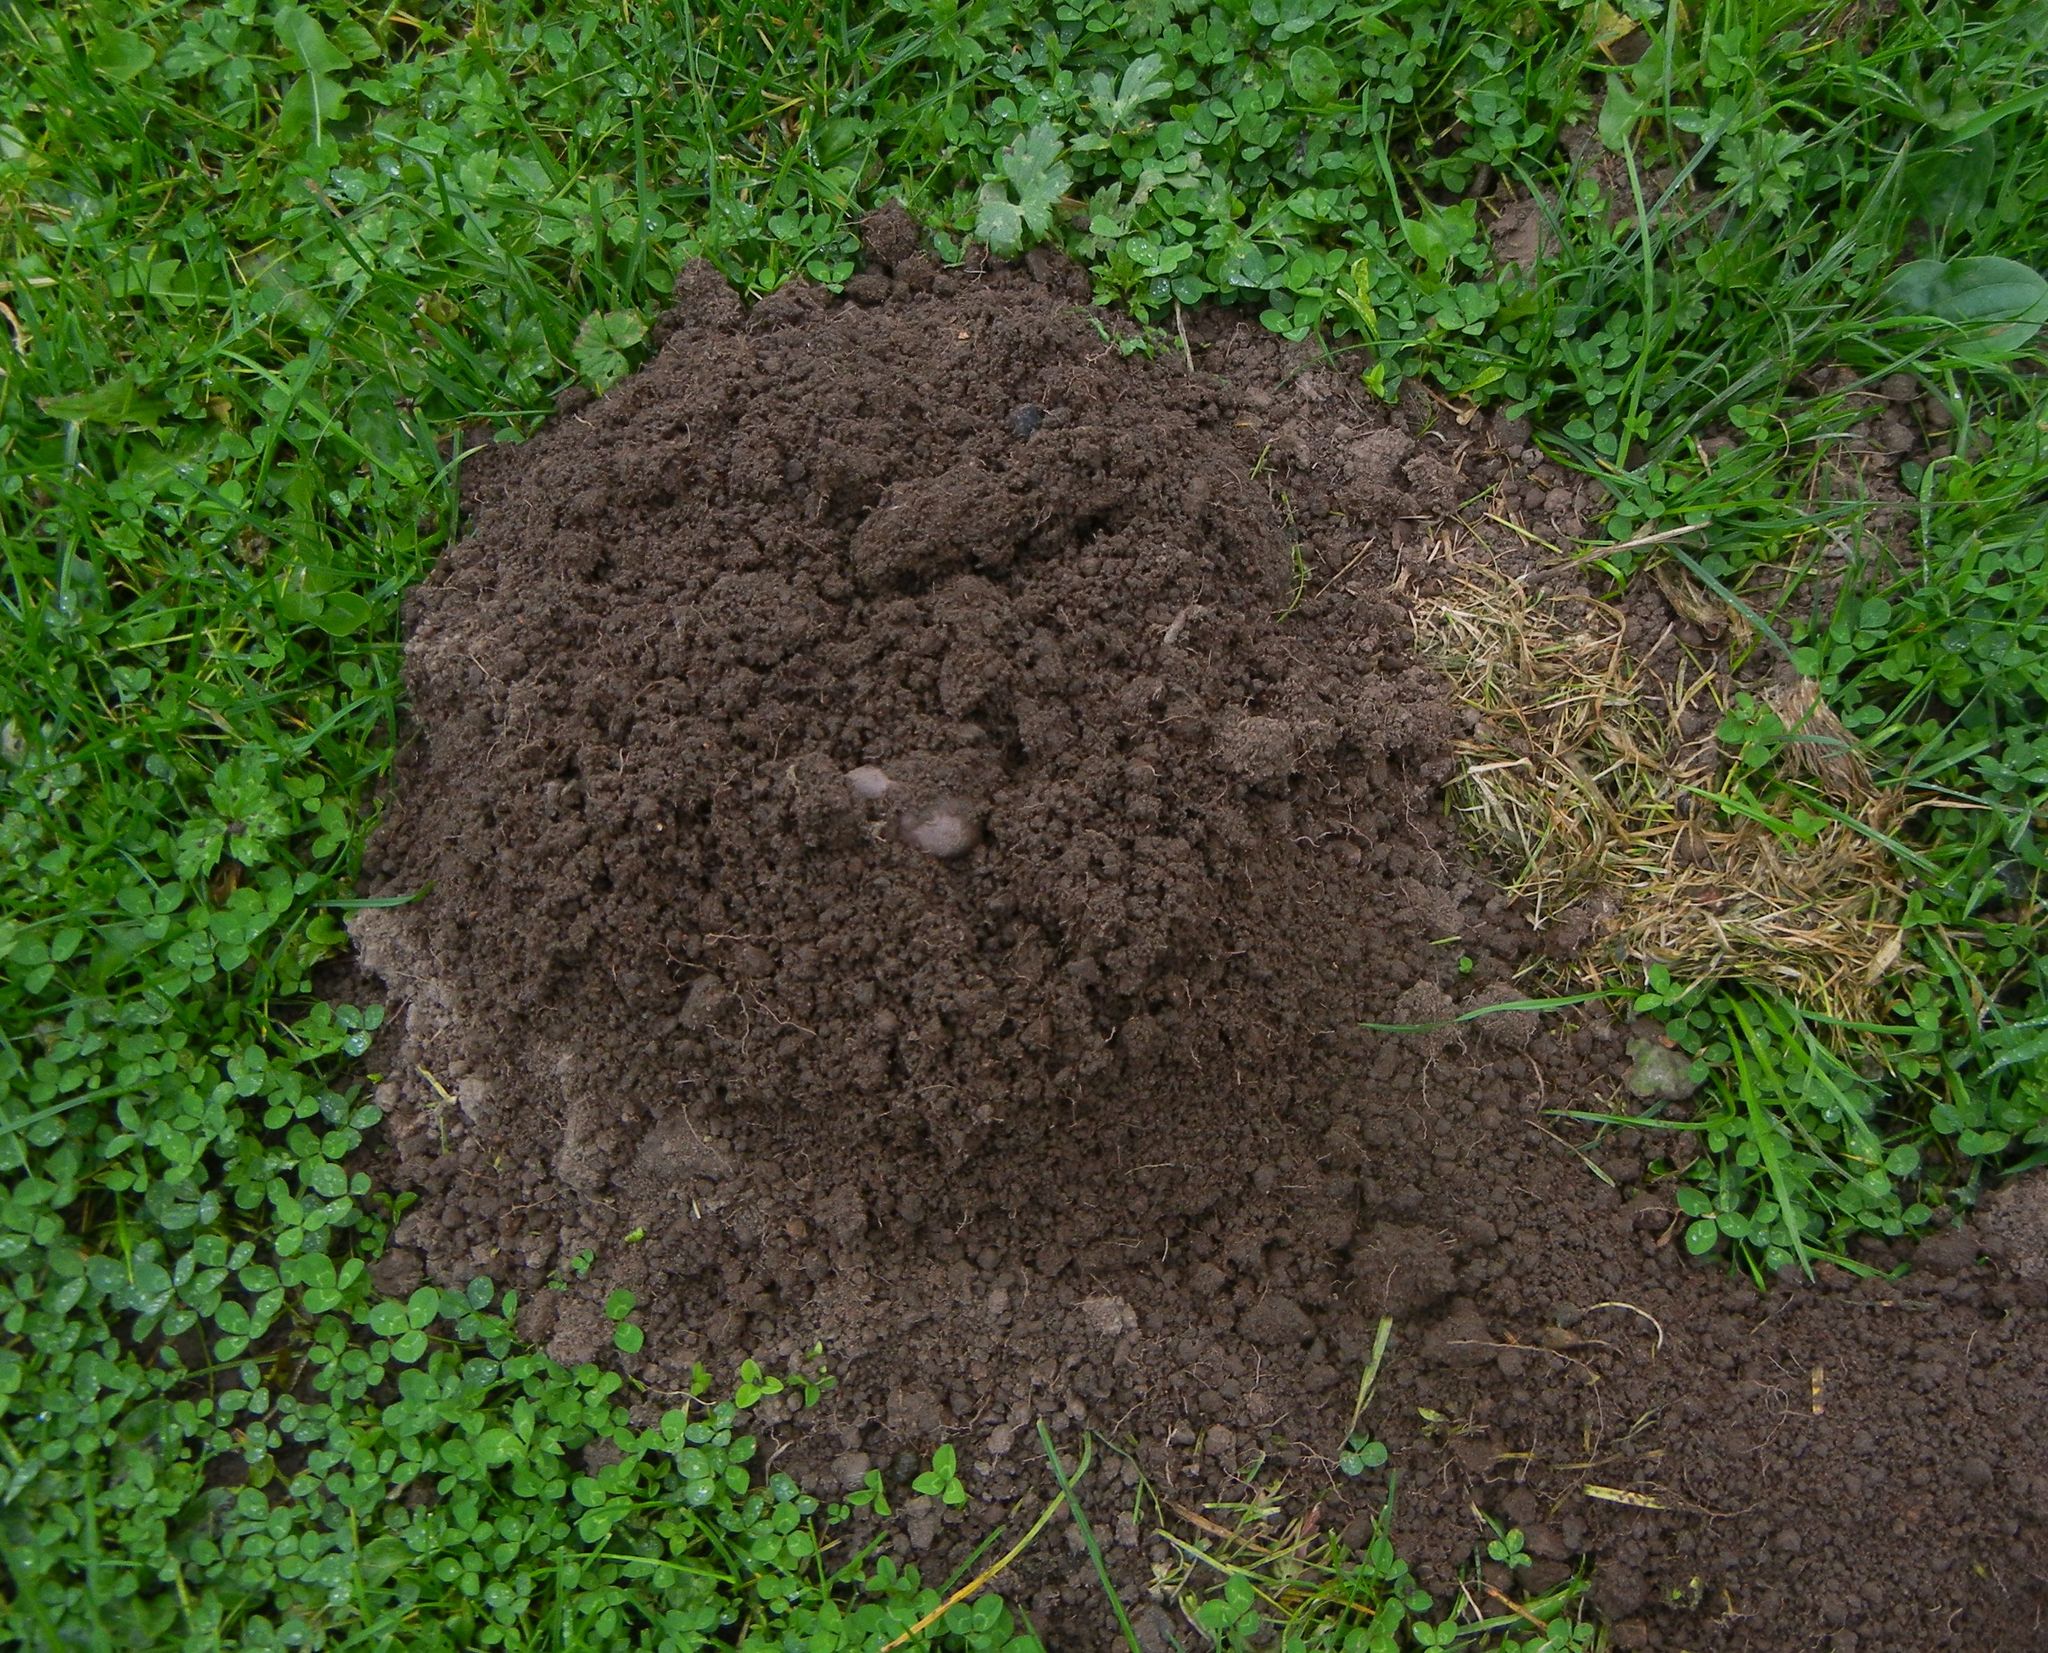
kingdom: Animalia
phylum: Chordata
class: Mammalia
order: Soricomorpha
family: Talpidae
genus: Talpa
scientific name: Talpa europaea
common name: European mole
